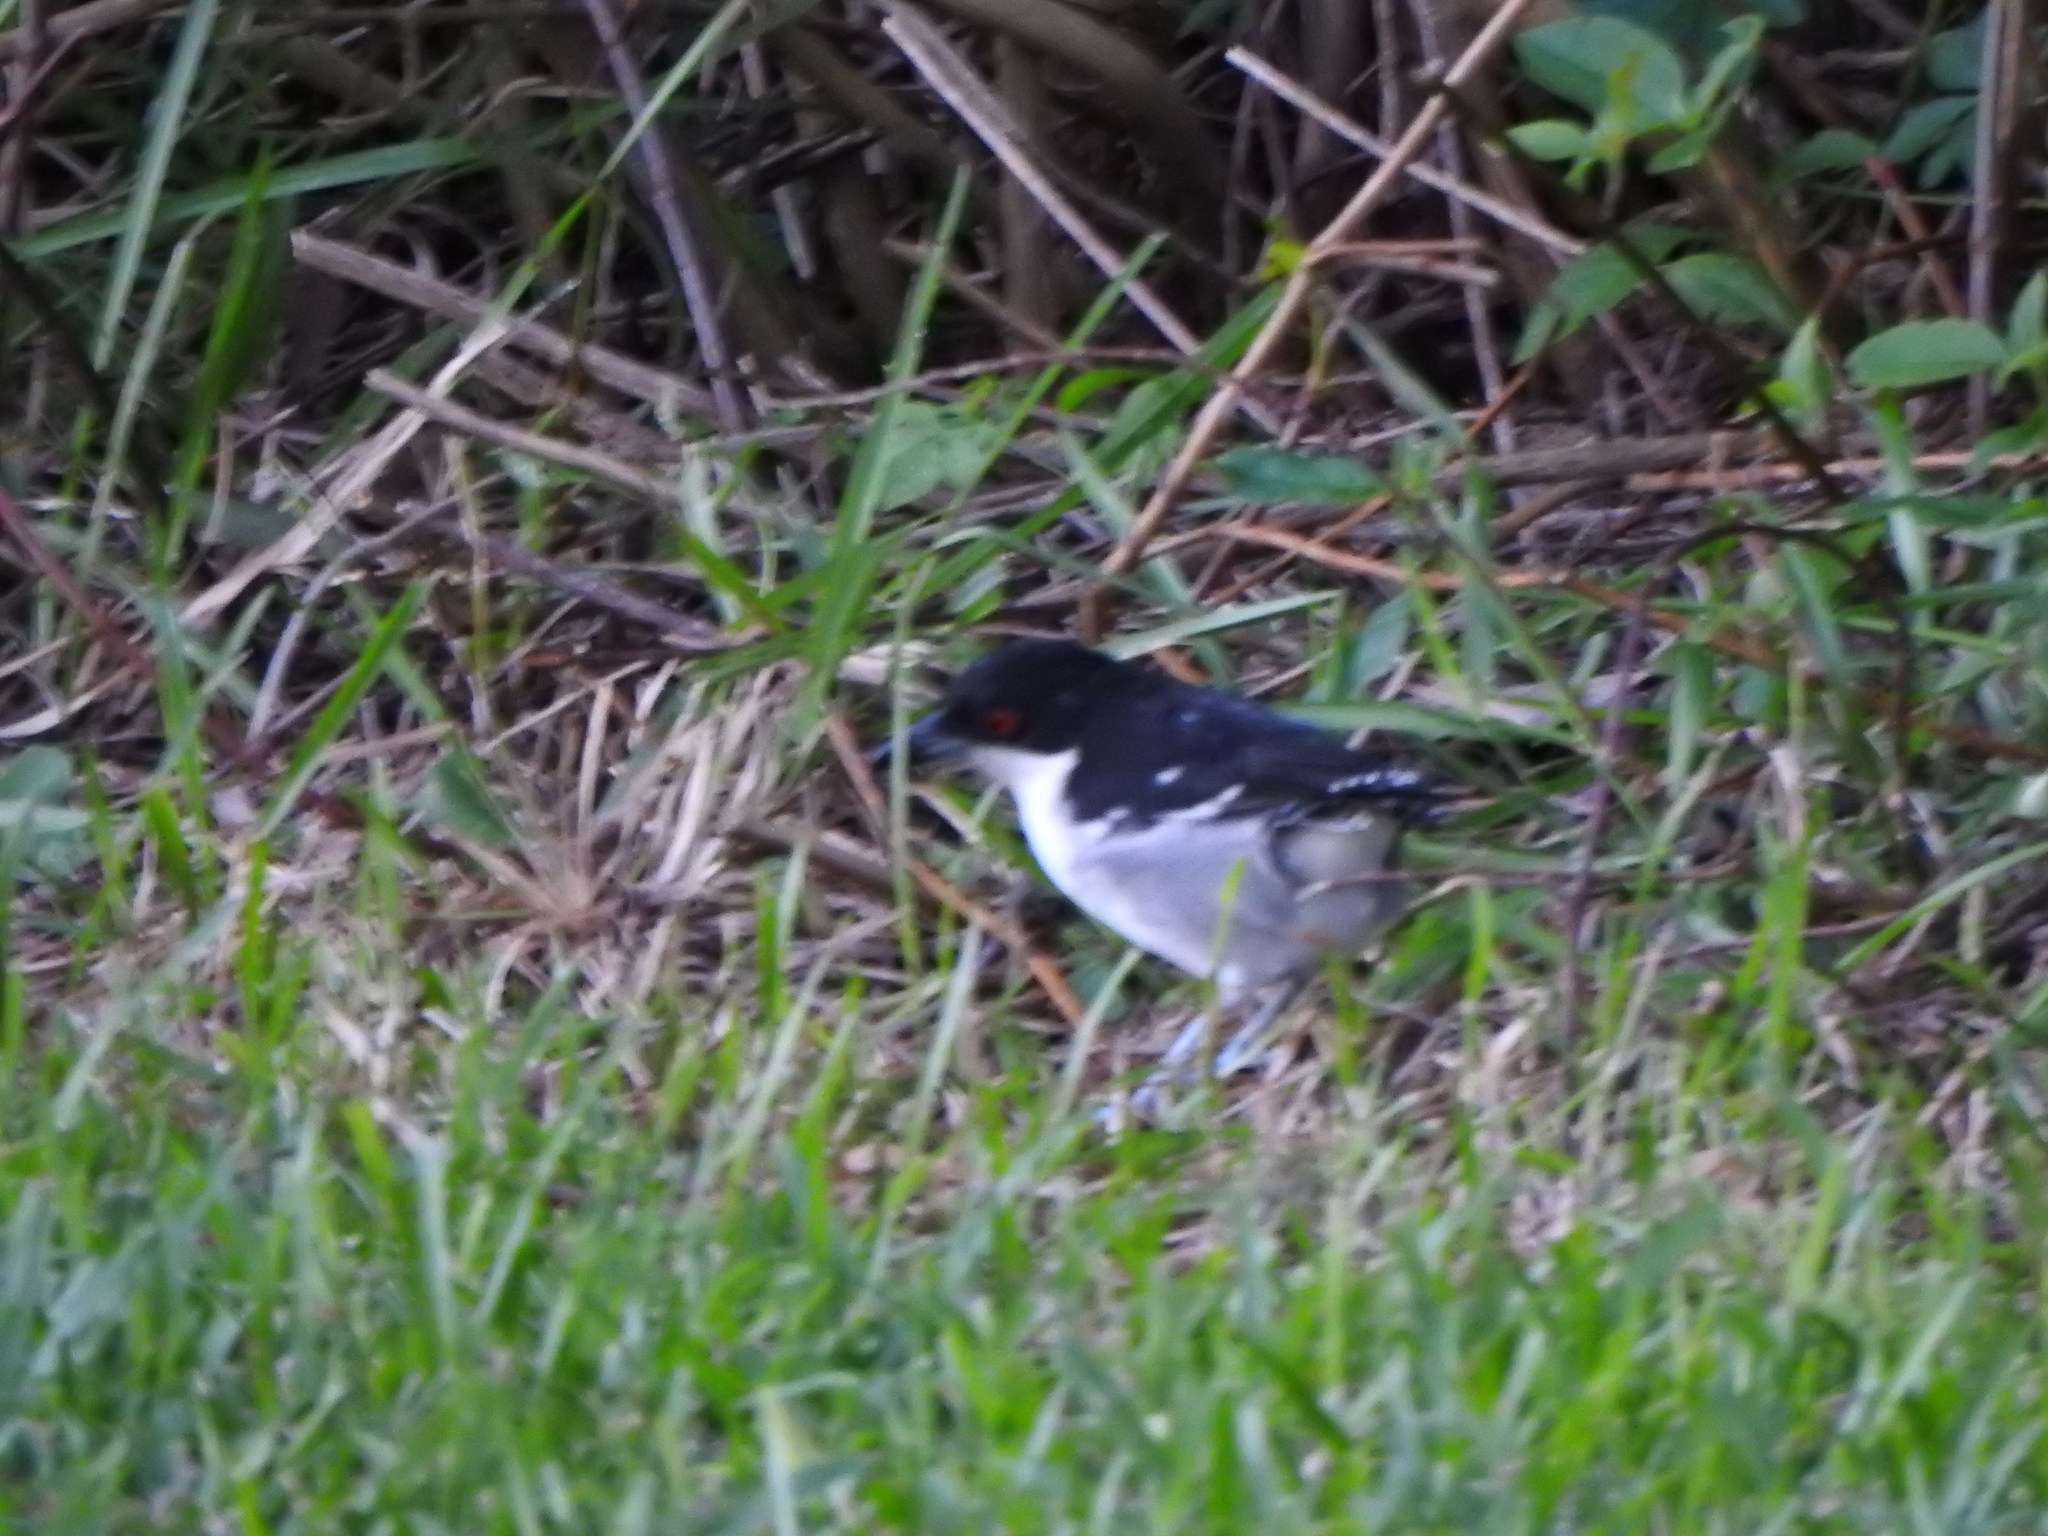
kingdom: Animalia
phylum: Chordata
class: Aves
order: Passeriformes
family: Thamnophilidae
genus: Taraba
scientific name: Taraba major
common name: Great antshrike
